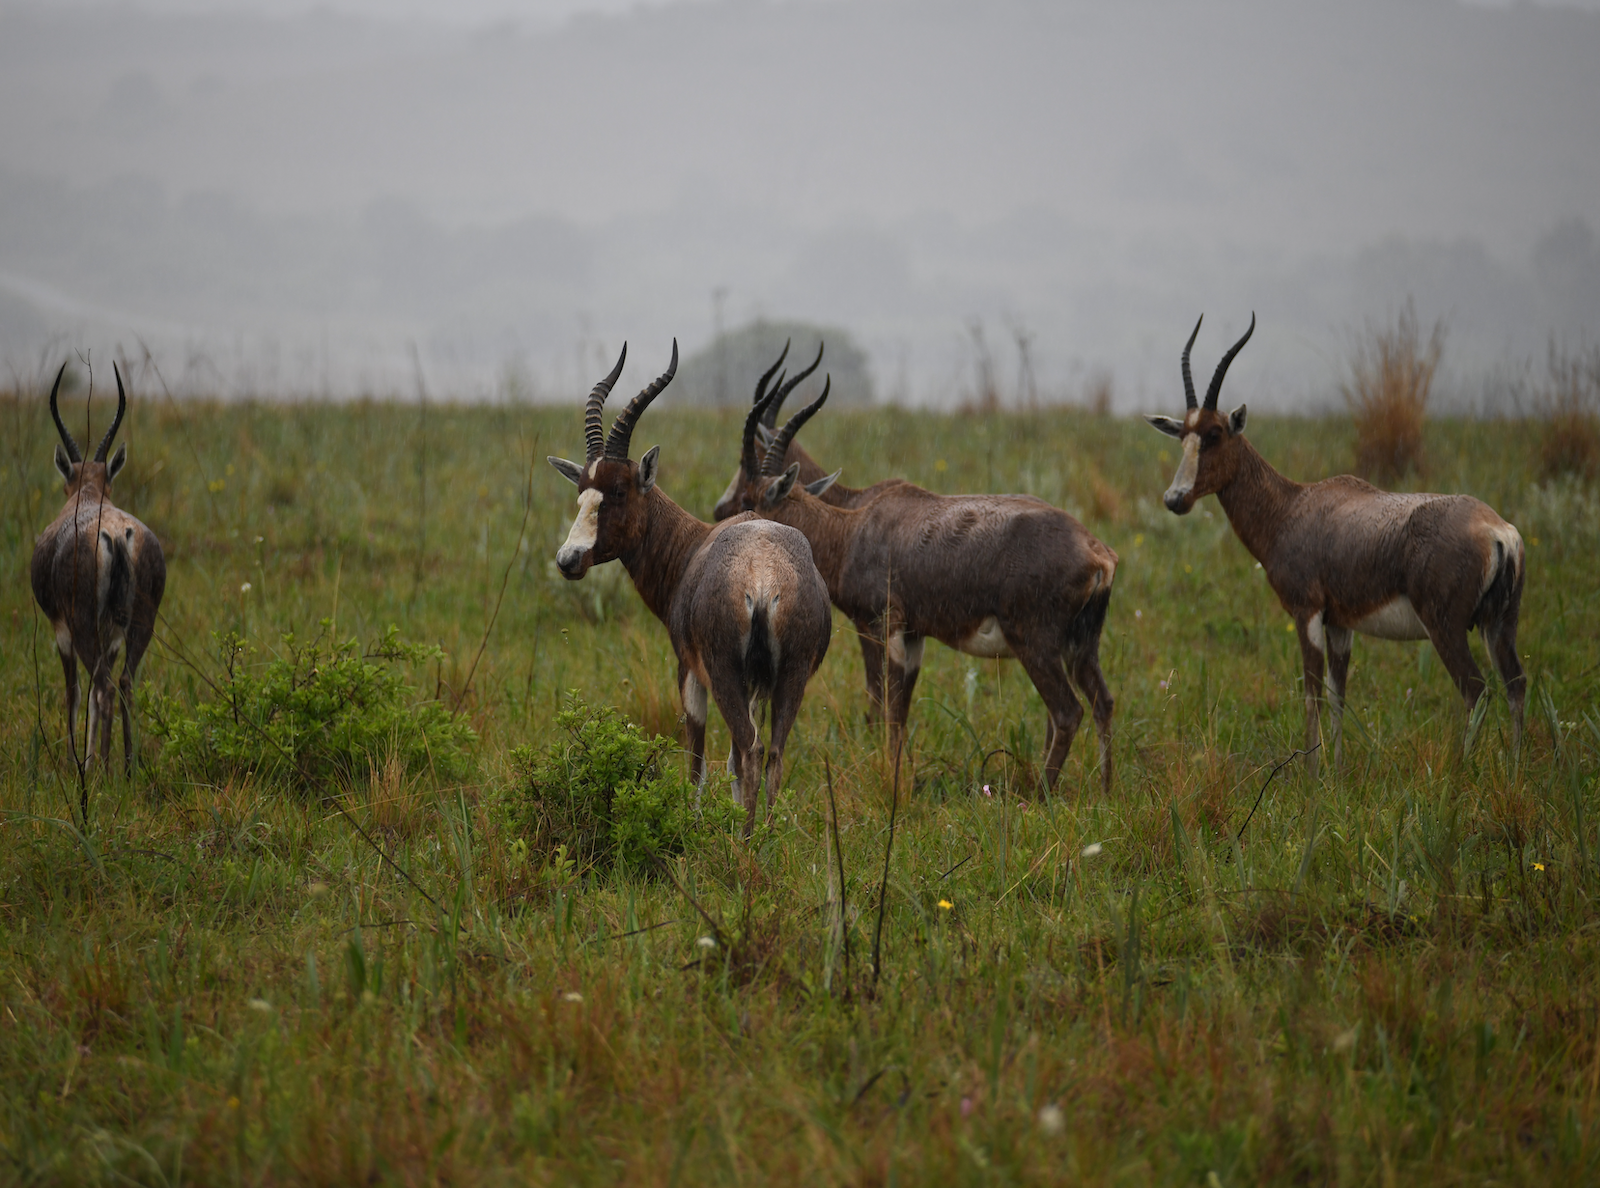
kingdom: Animalia
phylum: Chordata
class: Mammalia
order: Artiodactyla
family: Bovidae
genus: Damaliscus
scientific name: Damaliscus pygargus
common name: Bontebok
